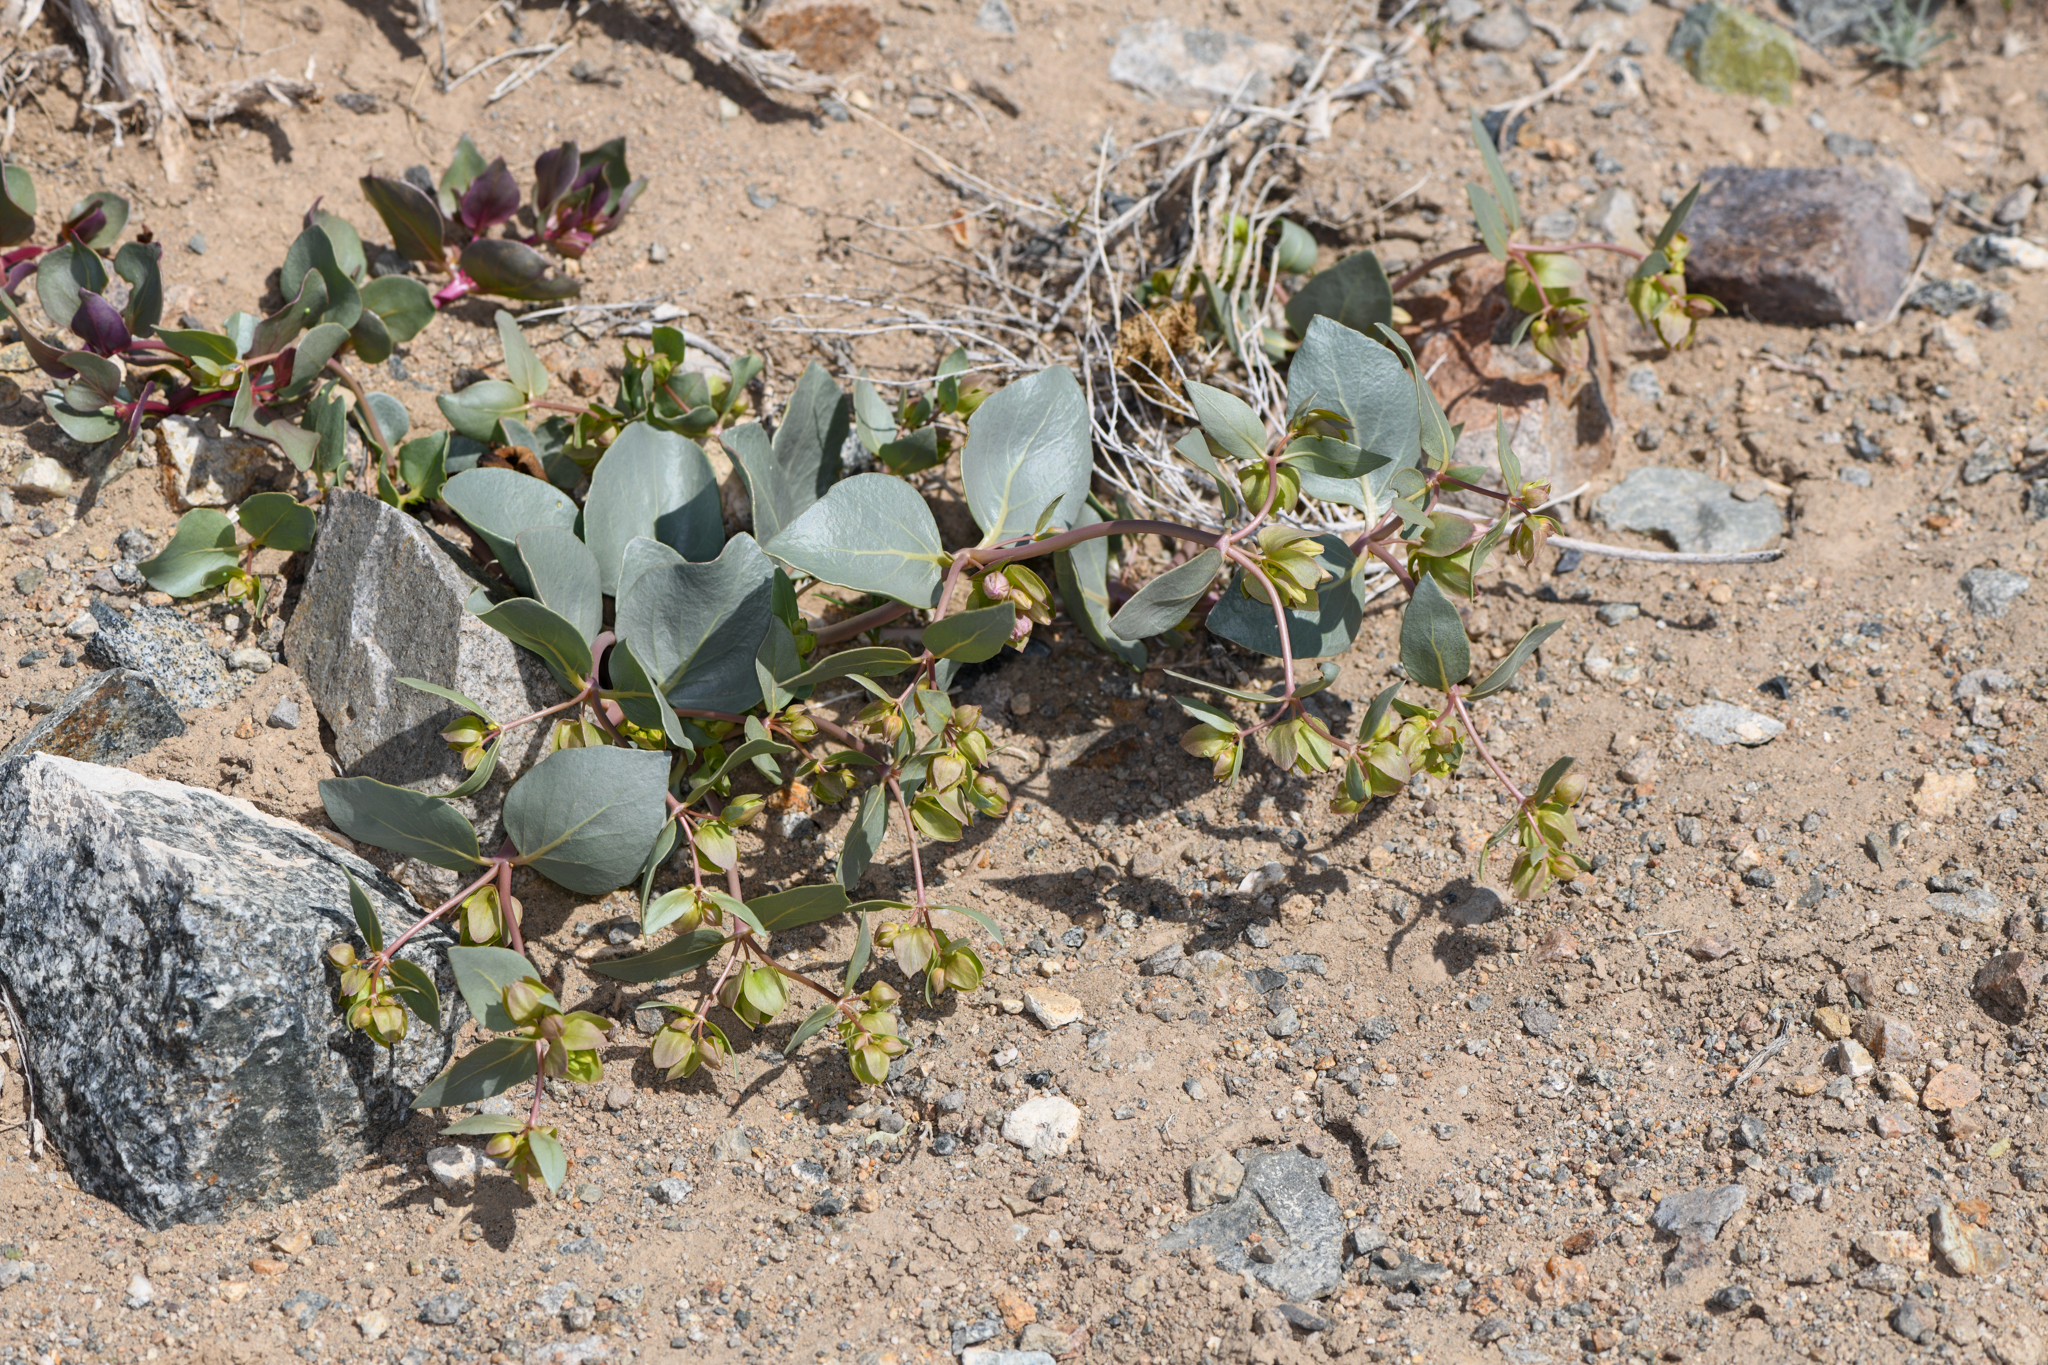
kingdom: Plantae
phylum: Tracheophyta
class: Magnoliopsida
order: Caryophyllales
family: Nyctaginaceae
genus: Mirabilis
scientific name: Mirabilis alipes
